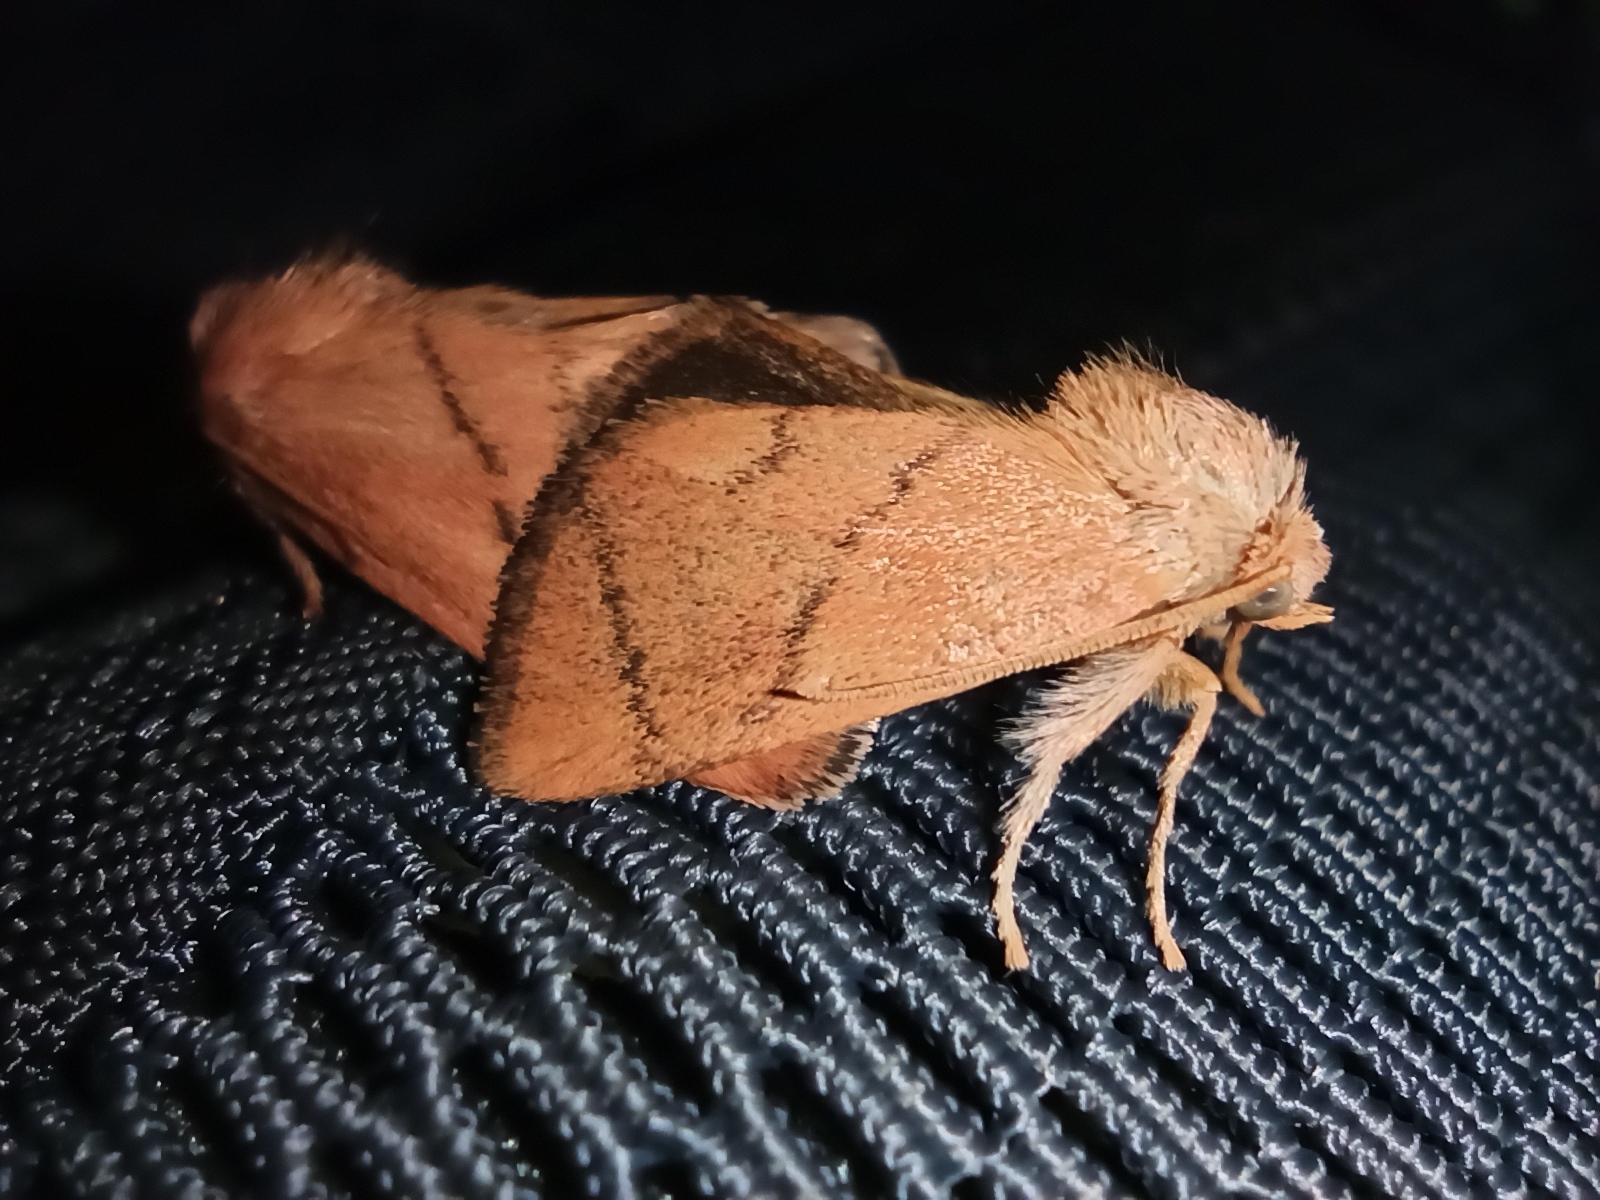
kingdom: Animalia
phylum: Arthropoda
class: Insecta
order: Lepidoptera
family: Limacodidae
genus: Apoda
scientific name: Apoda limacodes
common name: Festoon
